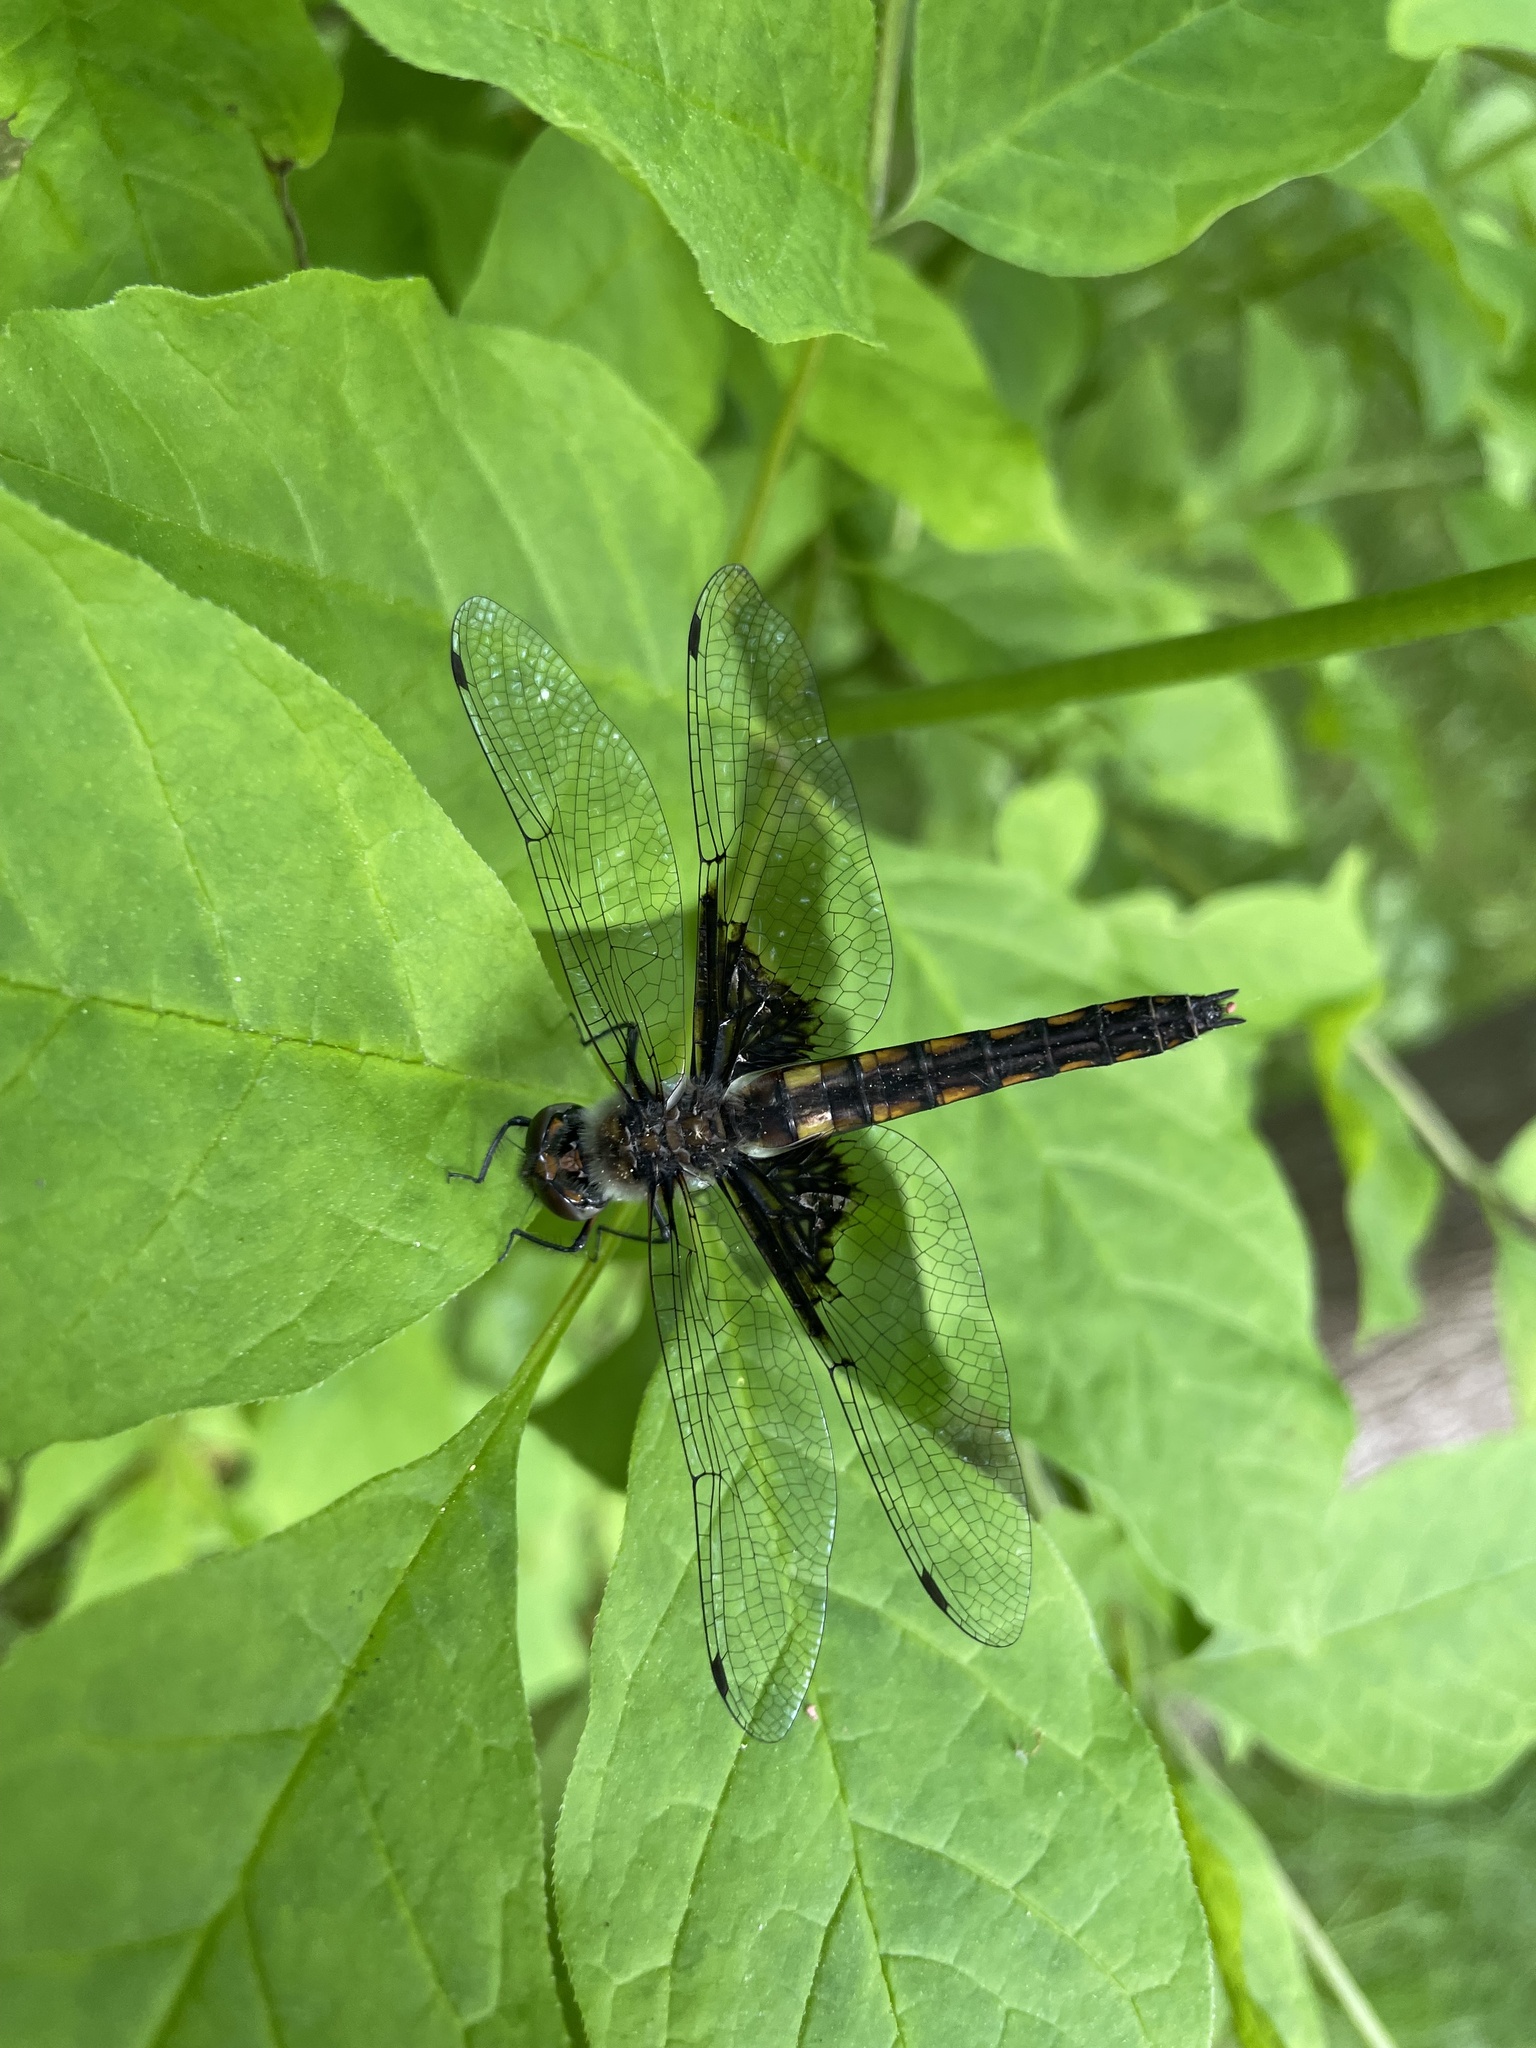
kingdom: Animalia
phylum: Arthropoda
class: Insecta
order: Odonata
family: Corduliidae
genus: Epitheca
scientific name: Epitheca cynosura
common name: Common baskettail
